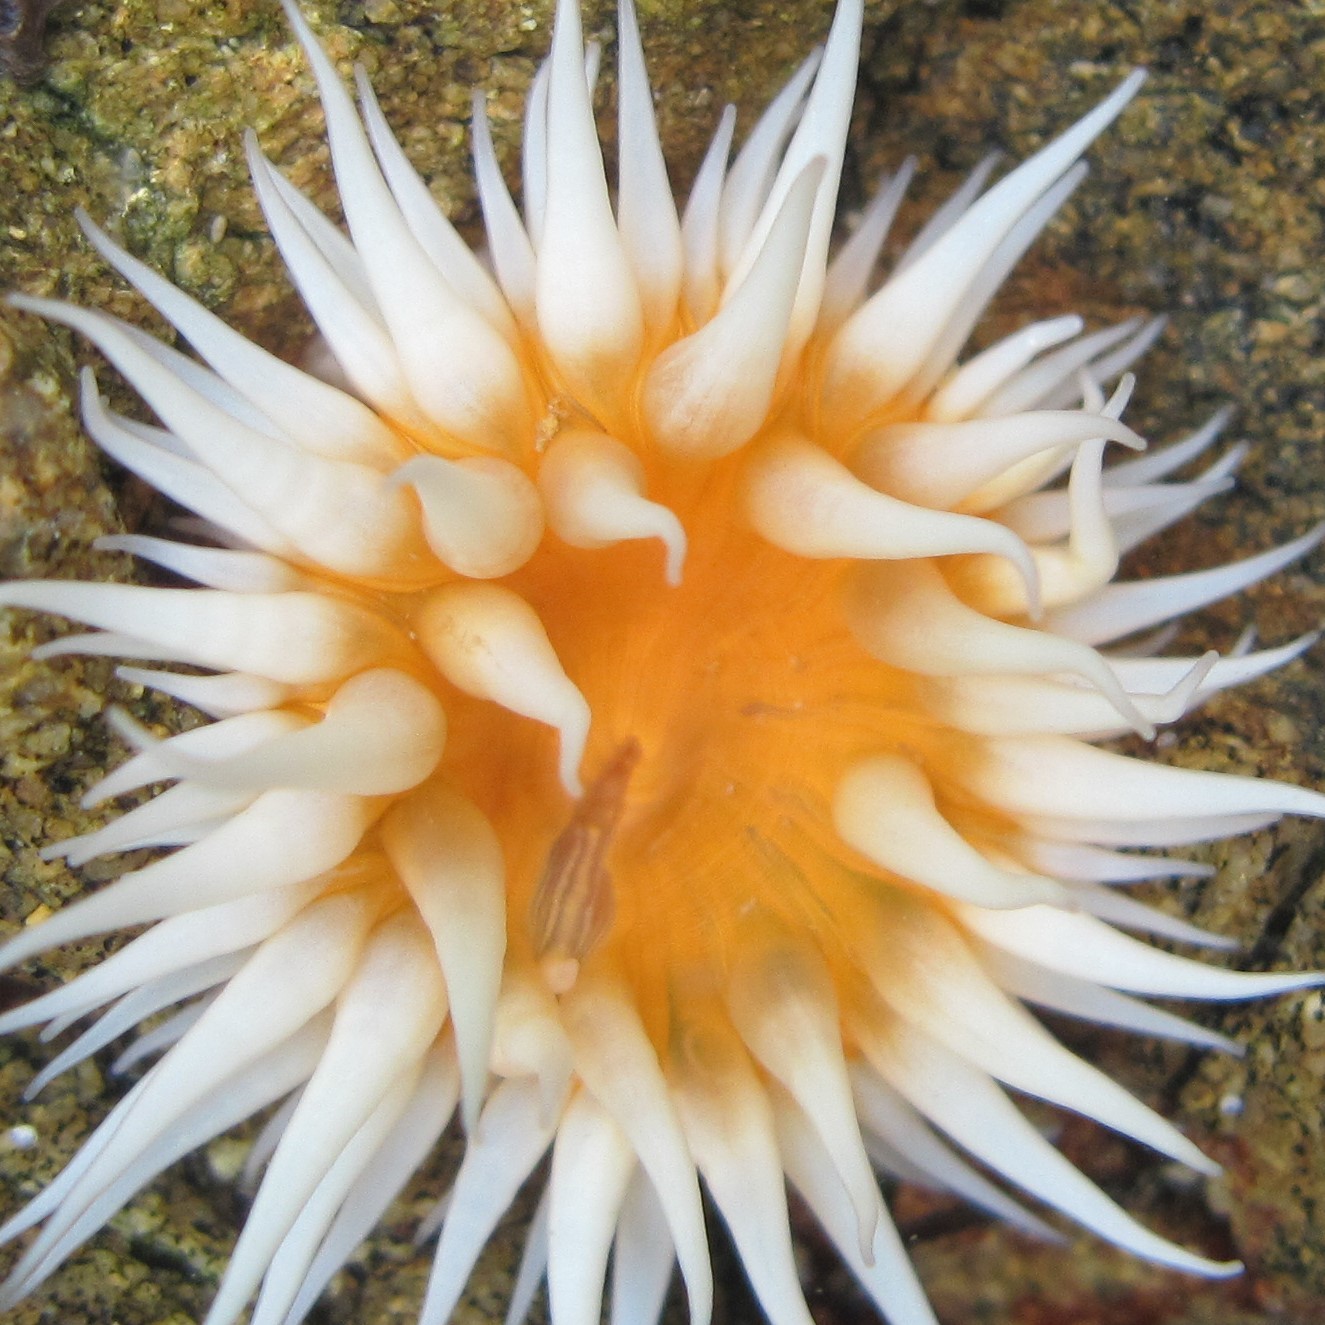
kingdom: Animalia
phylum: Cnidaria
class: Anthozoa
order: Actiniaria
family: Sagartiidae
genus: Anthothoe
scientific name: Anthothoe albocincta
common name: Orange striped anemone
